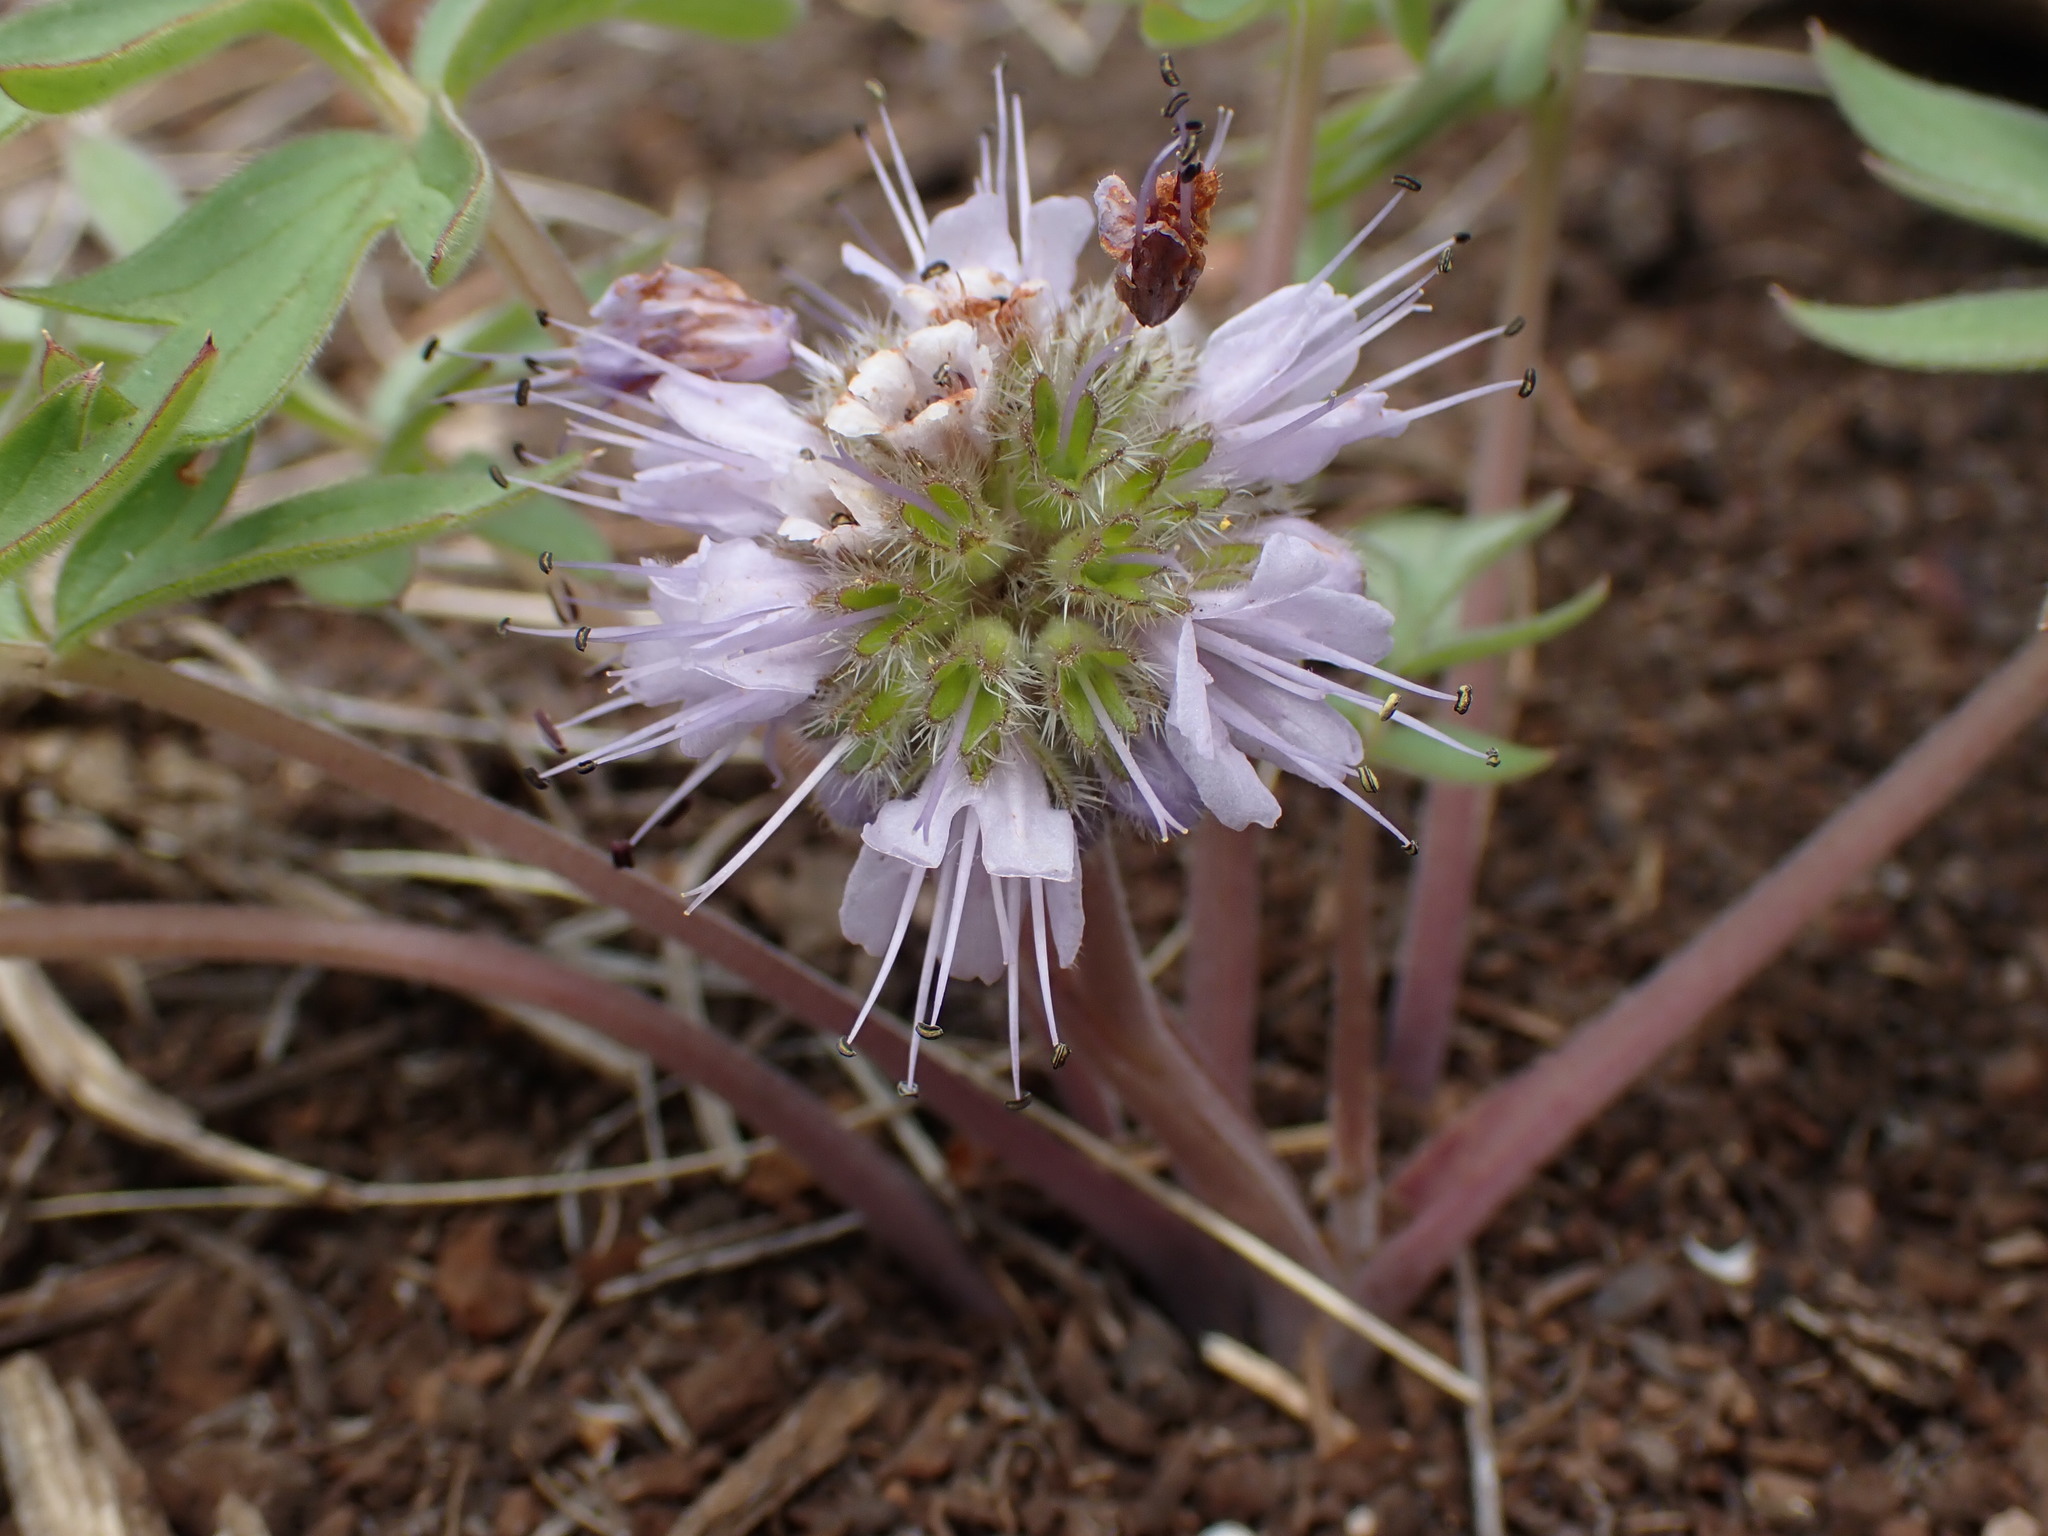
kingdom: Plantae
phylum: Tracheophyta
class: Magnoliopsida
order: Boraginales
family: Hydrophyllaceae
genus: Hydrophyllum
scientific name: Hydrophyllum capitatum
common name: Woollen-breeches
